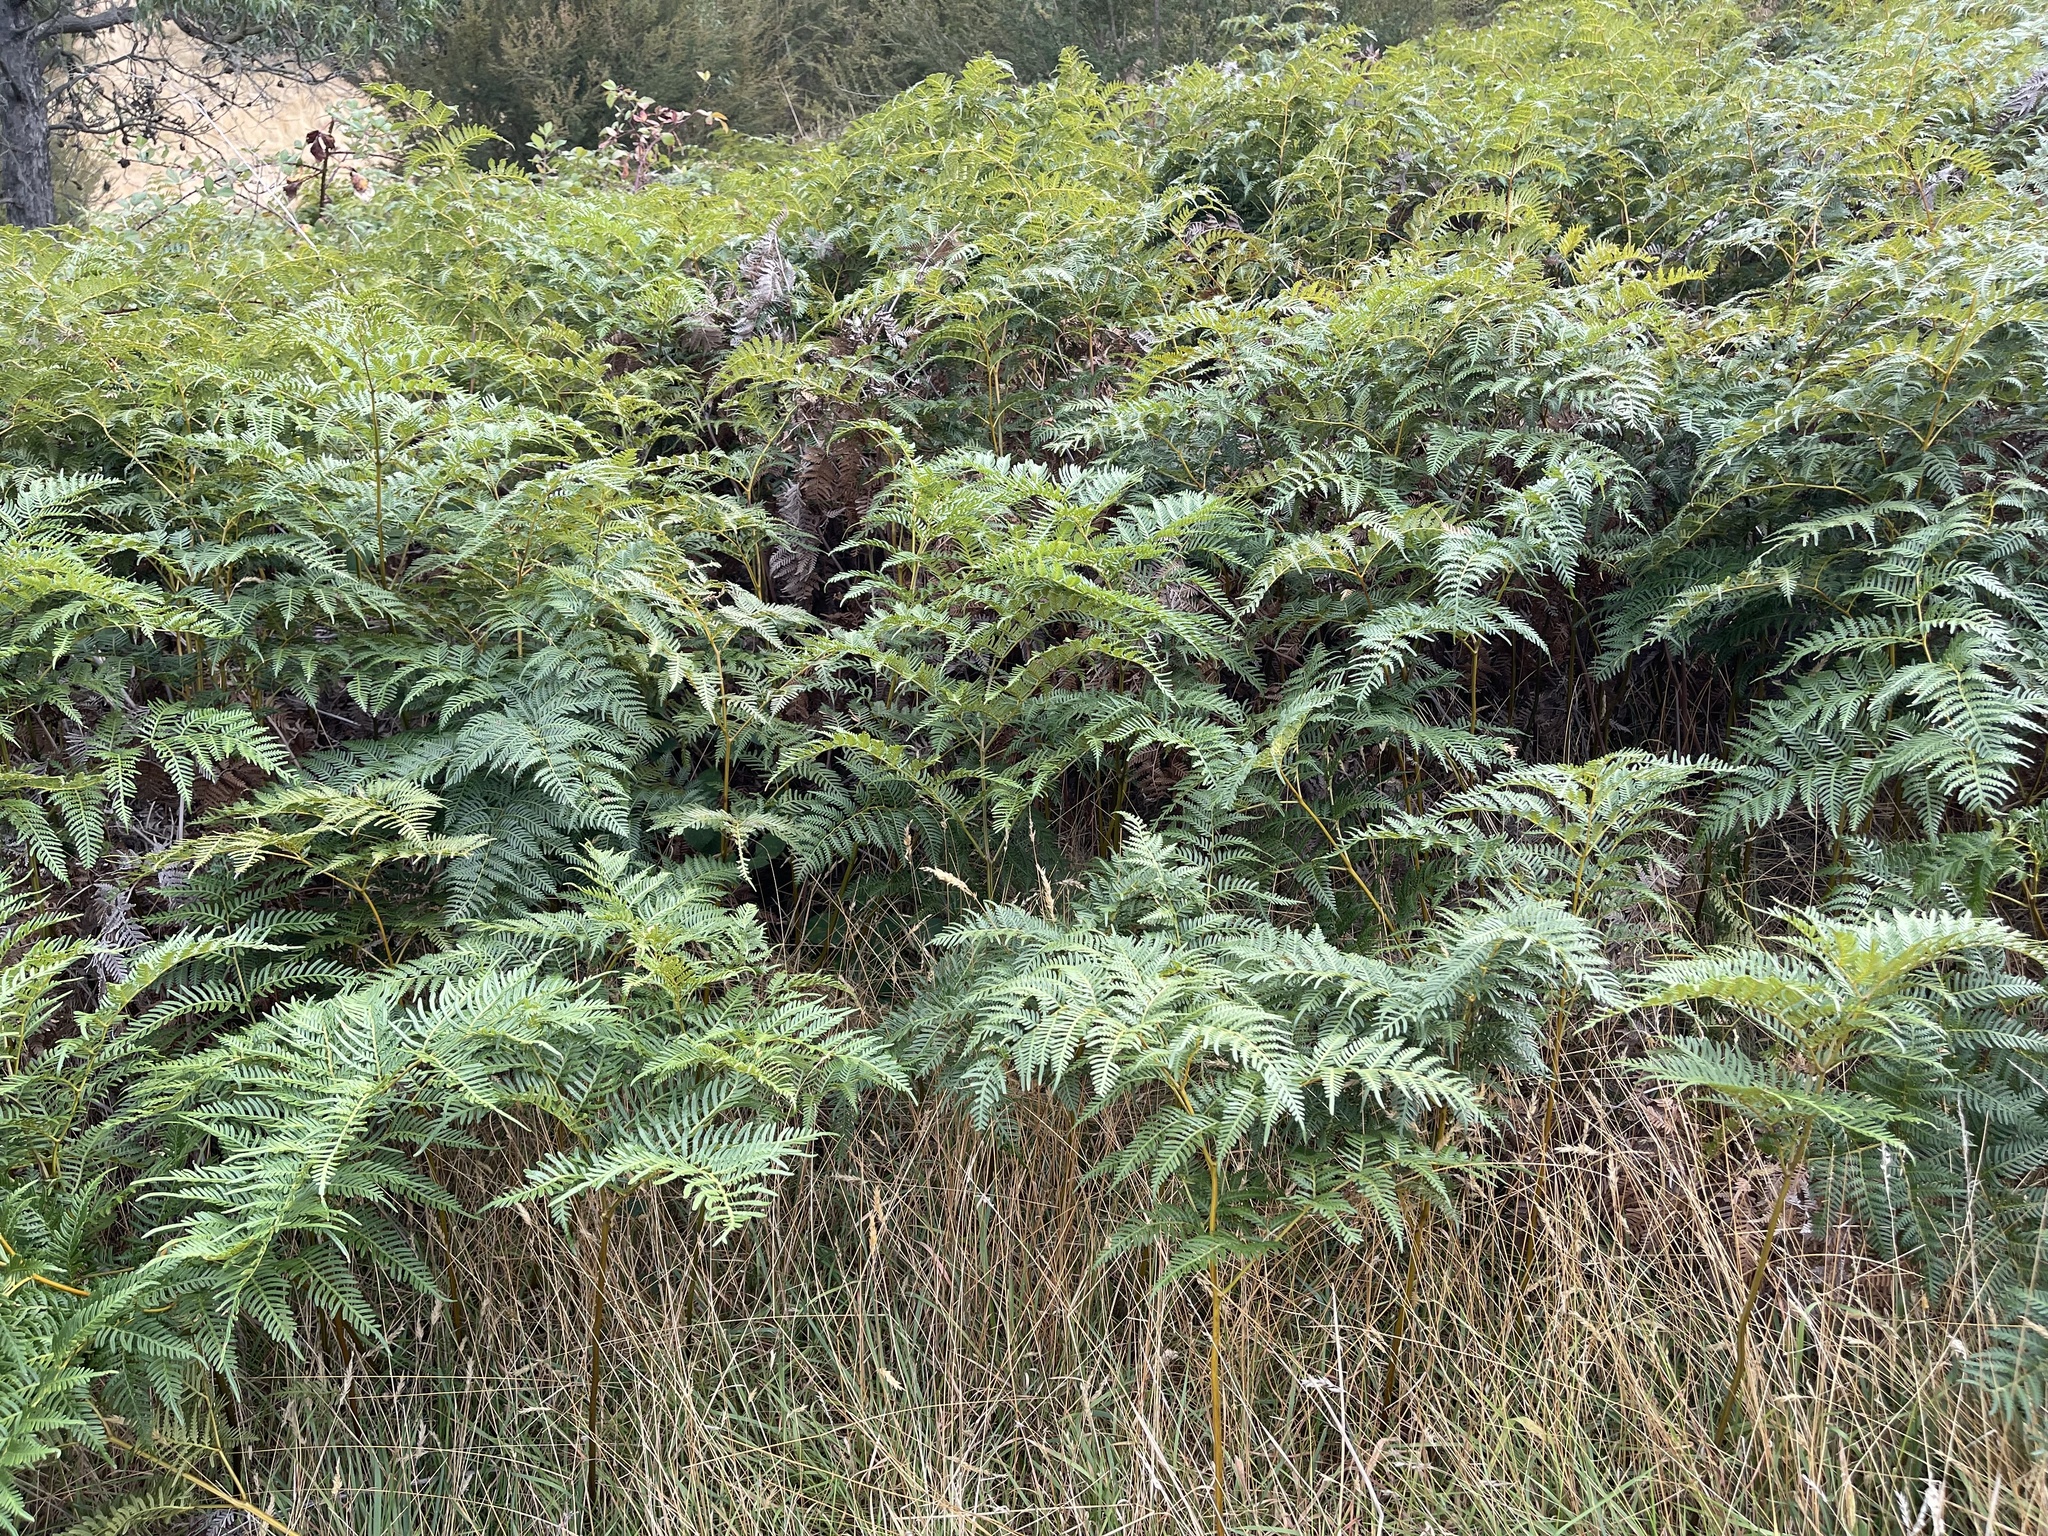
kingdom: Plantae
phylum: Tracheophyta
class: Polypodiopsida
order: Polypodiales
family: Dennstaedtiaceae
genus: Pteridium
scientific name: Pteridium esculentum
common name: Bracken fern
